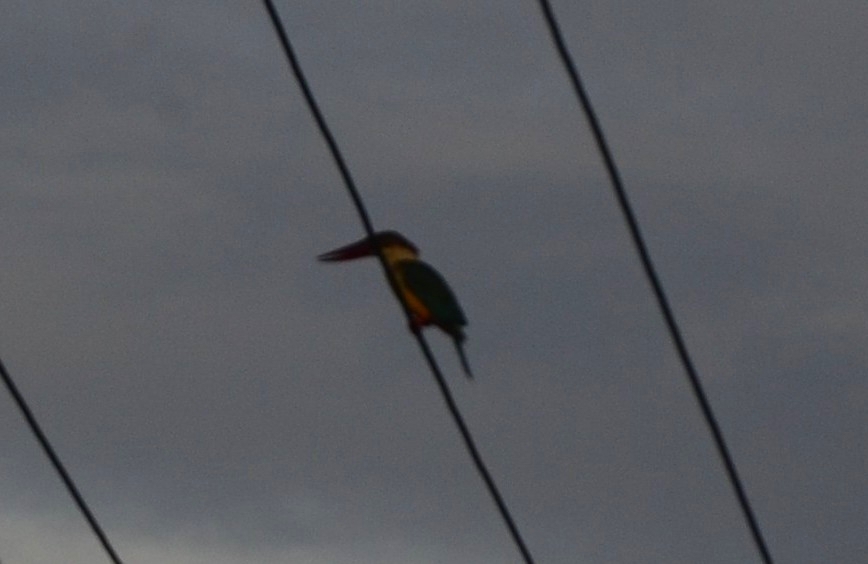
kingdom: Animalia
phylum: Chordata
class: Aves
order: Coraciiformes
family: Alcedinidae
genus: Pelargopsis
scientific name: Pelargopsis capensis
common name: Stork-billed kingfisher
